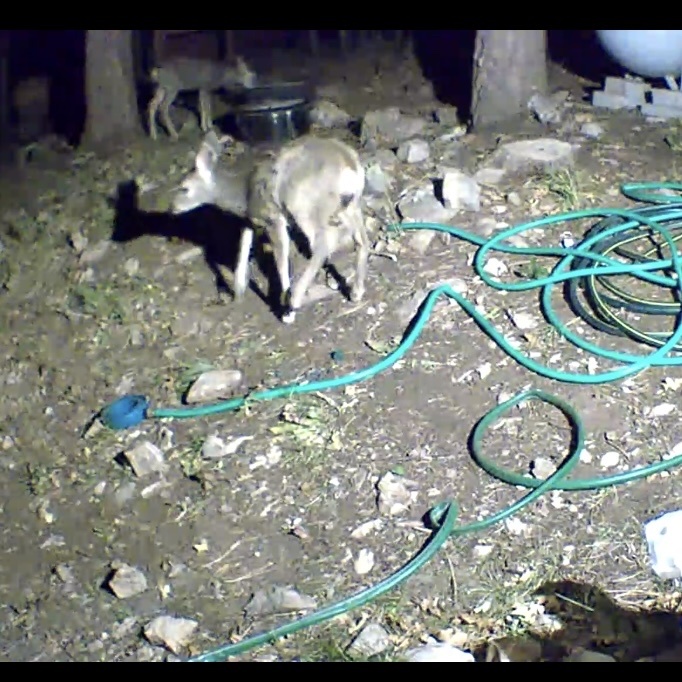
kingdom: Animalia
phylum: Chordata
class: Mammalia
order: Artiodactyla
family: Cervidae
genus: Odocoileus
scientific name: Odocoileus hemionus
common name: Mule deer
